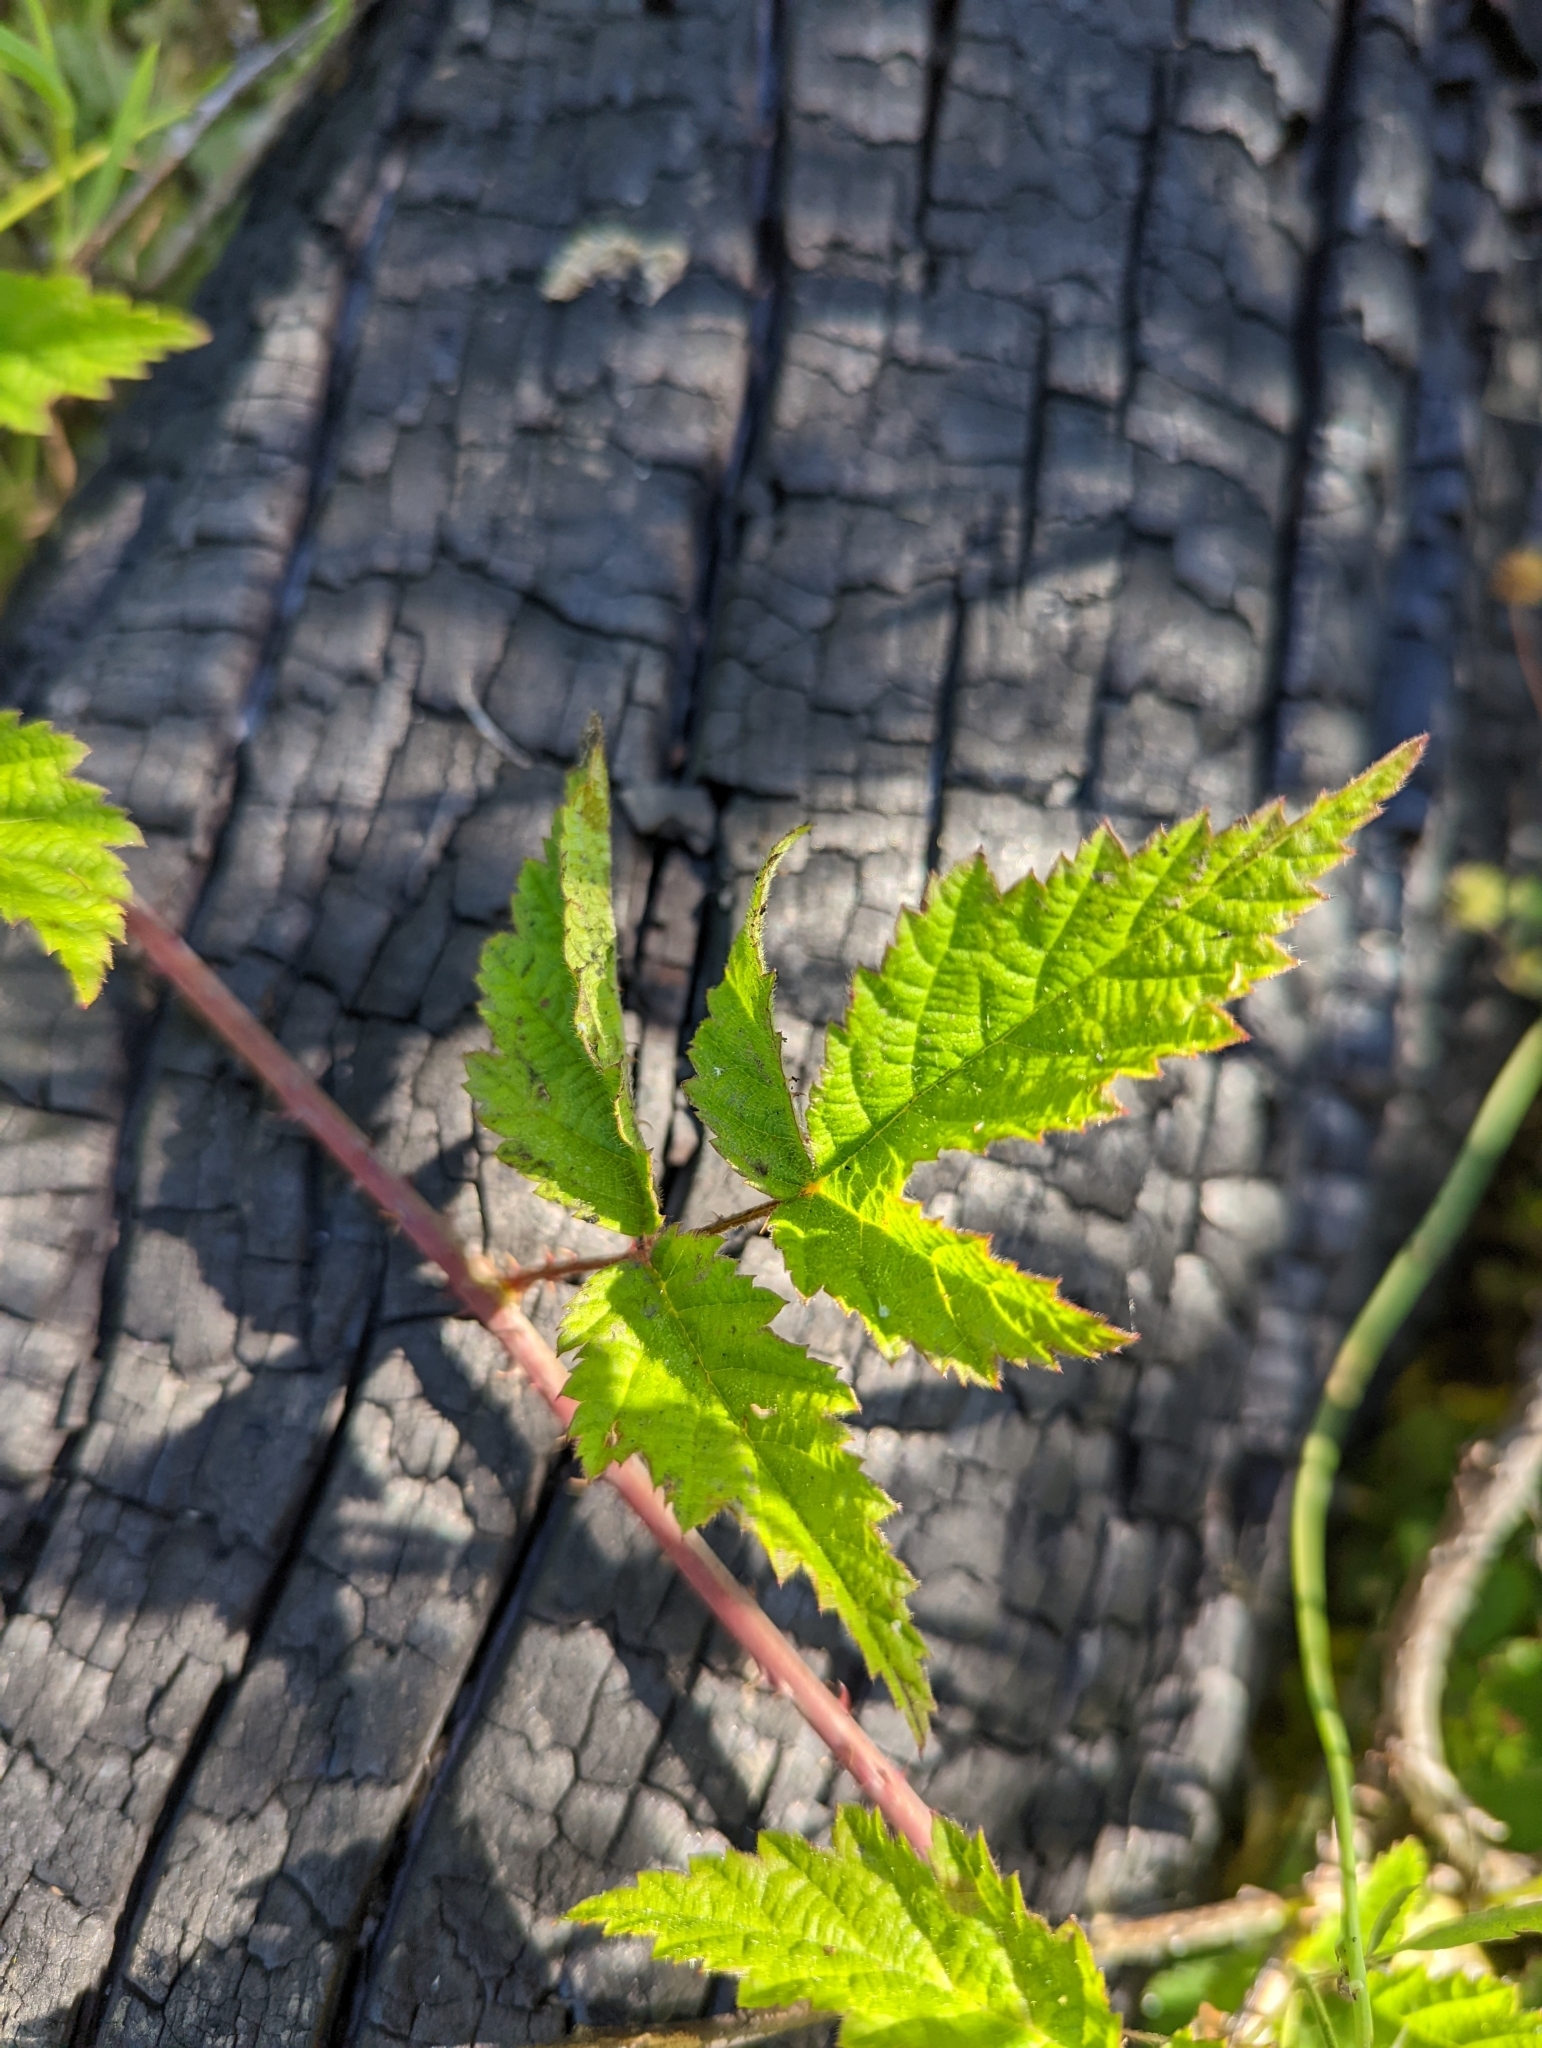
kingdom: Plantae
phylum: Tracheophyta
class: Magnoliopsida
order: Rosales
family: Rosaceae
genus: Rubus
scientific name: Rubus ursinus
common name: Pacific blackberry
